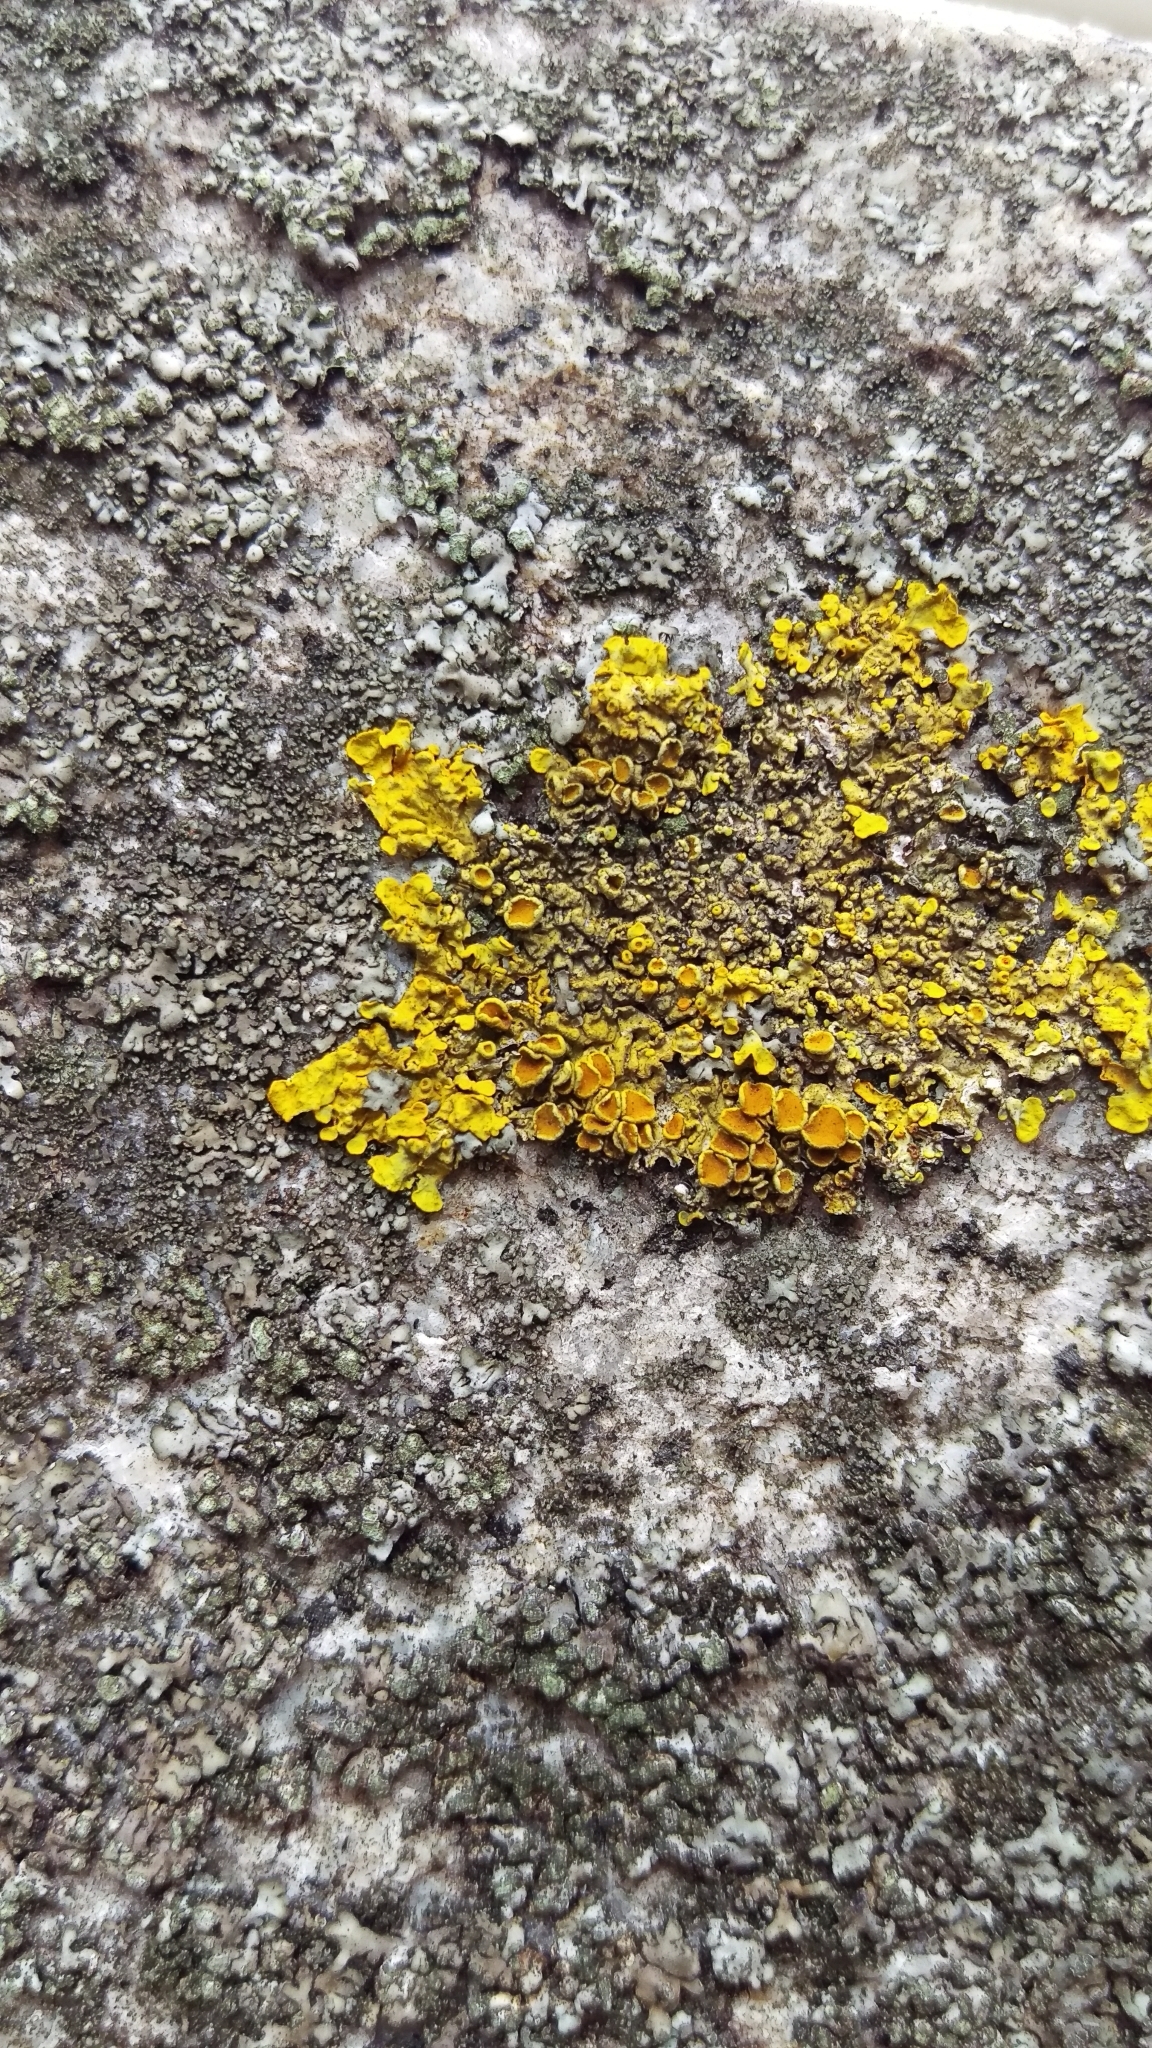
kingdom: Fungi
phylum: Ascomycota
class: Lecanoromycetes
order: Caliciales
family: Physciaceae
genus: Phaeophyscia
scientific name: Phaeophyscia orbicularis
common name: Mealy shadow lichen
